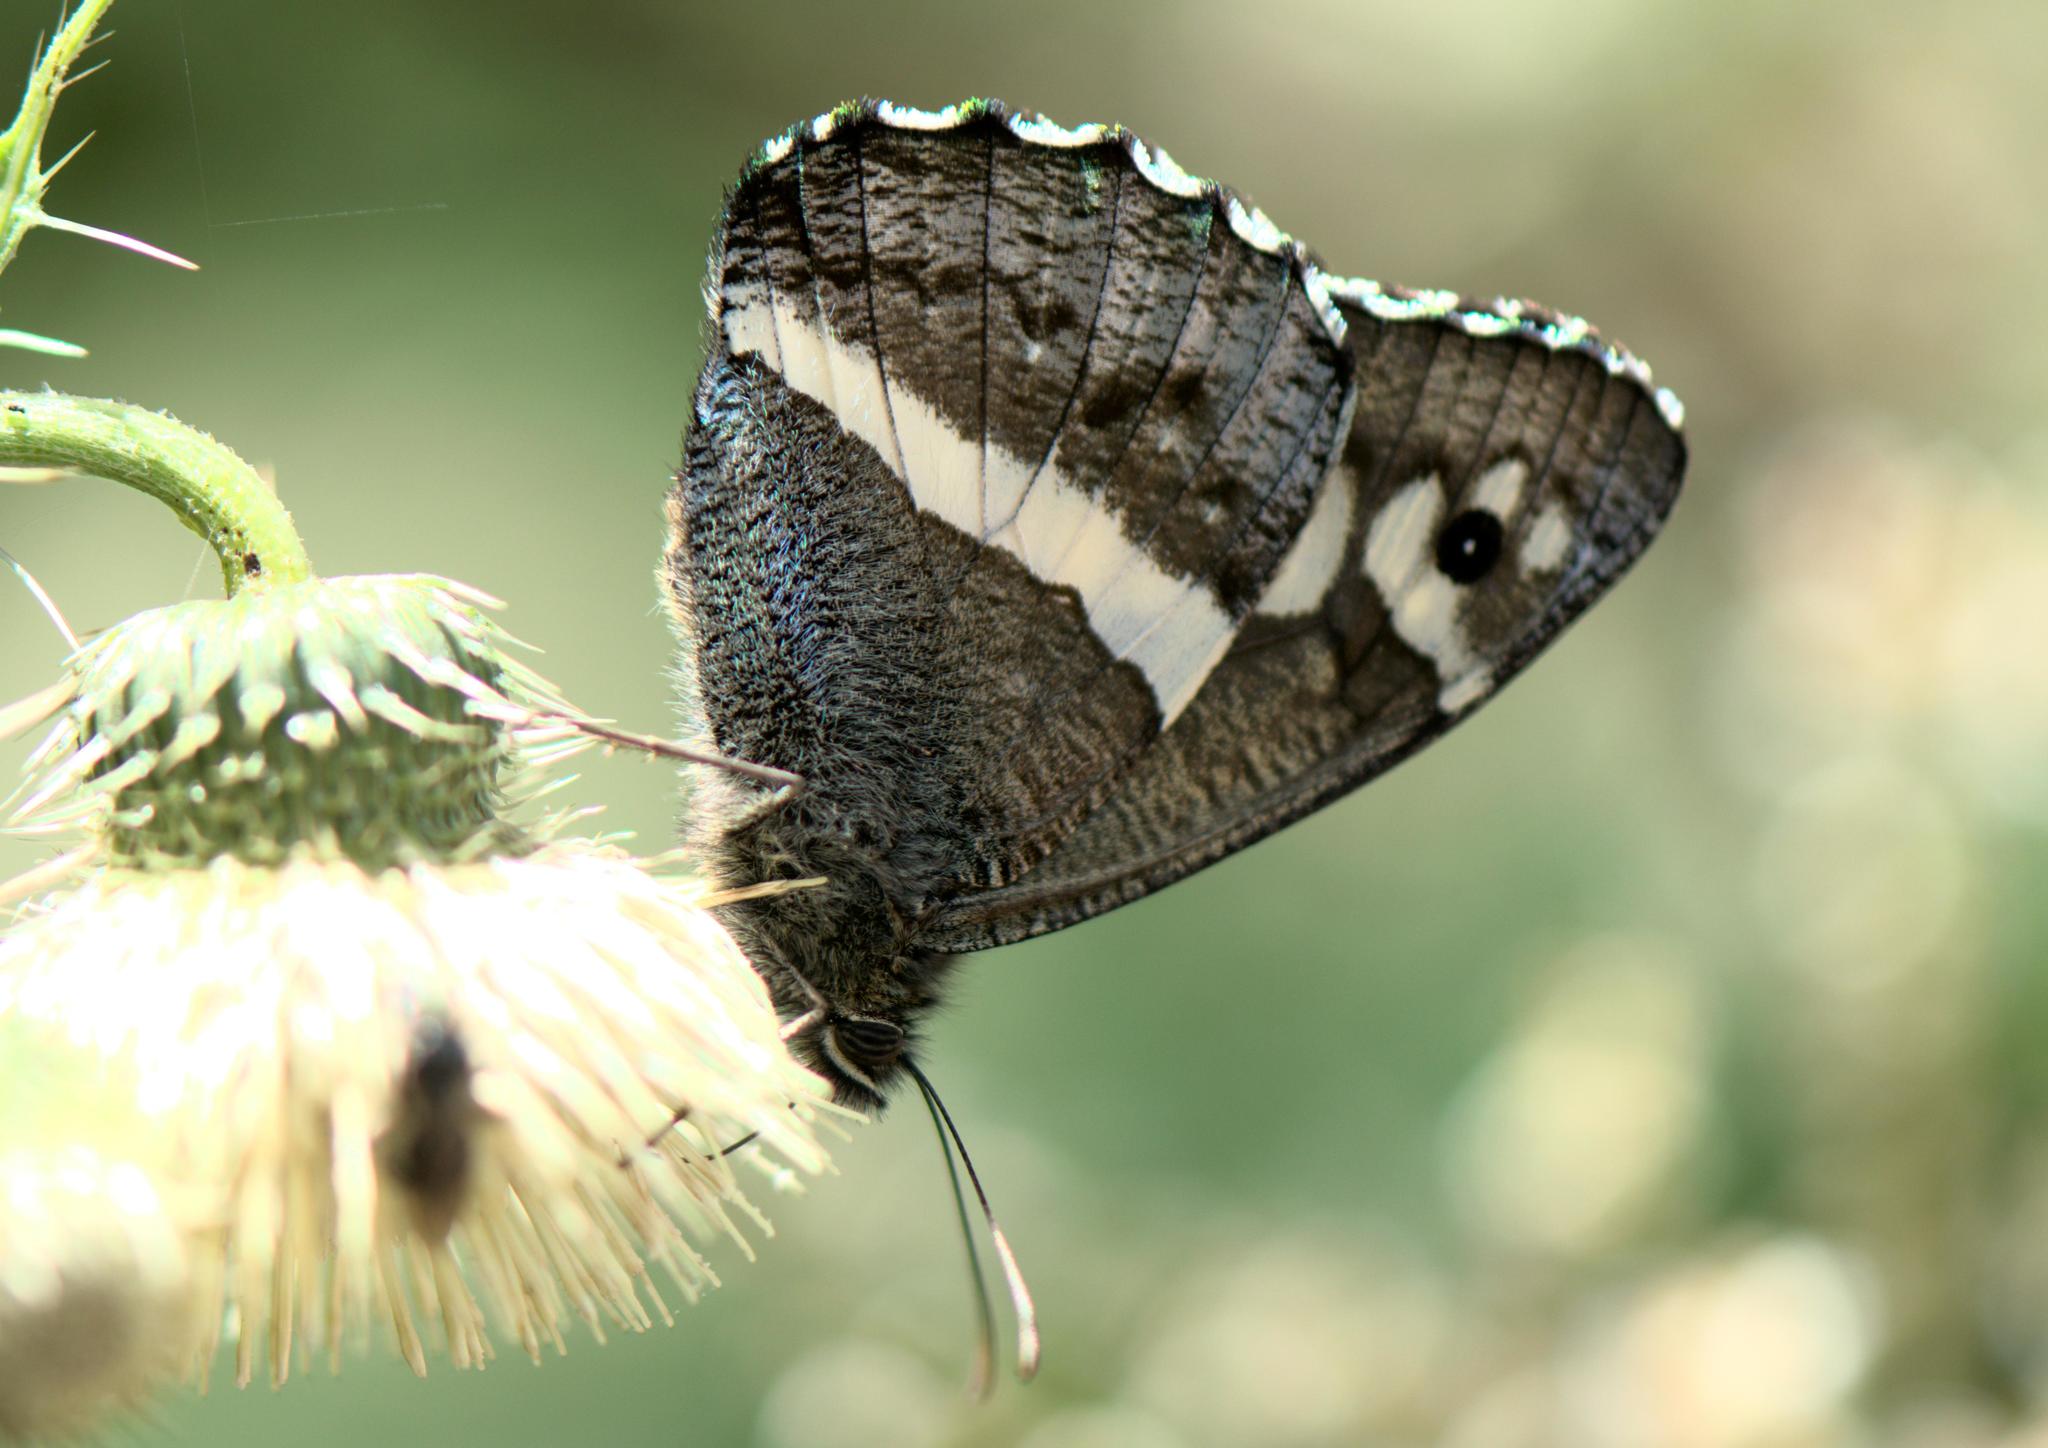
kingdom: Animalia
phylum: Arthropoda
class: Insecta
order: Lepidoptera
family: Nymphalidae
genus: Satyrus
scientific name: Satyrus Aulocera swaha
